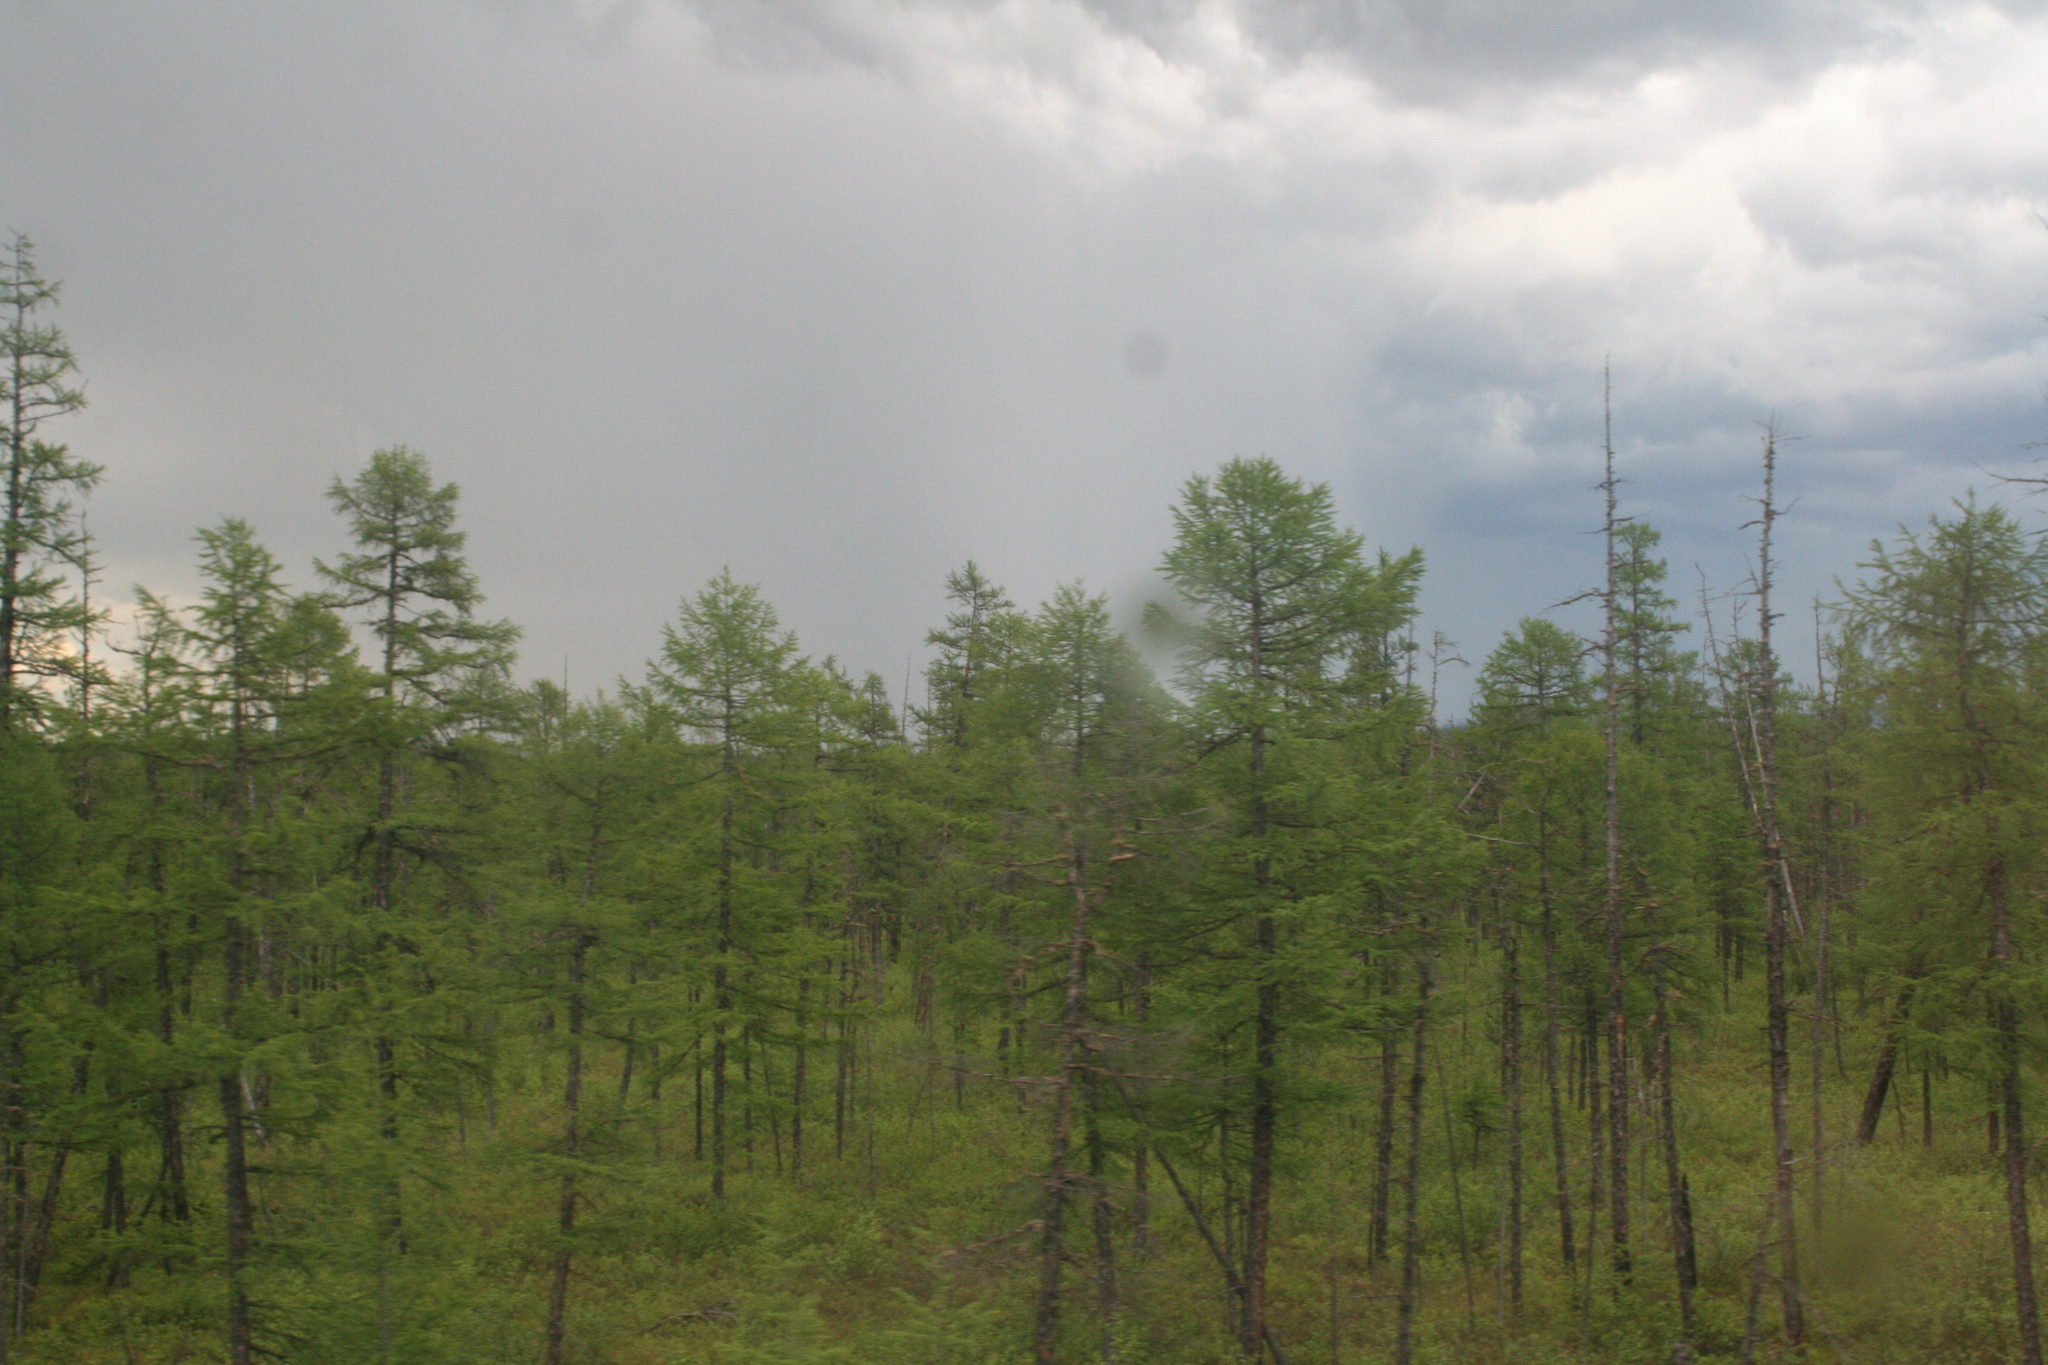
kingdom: Plantae
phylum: Tracheophyta
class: Pinopsida
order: Pinales
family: Pinaceae
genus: Larix
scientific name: Larix gmelinii
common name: Dahurian larch
